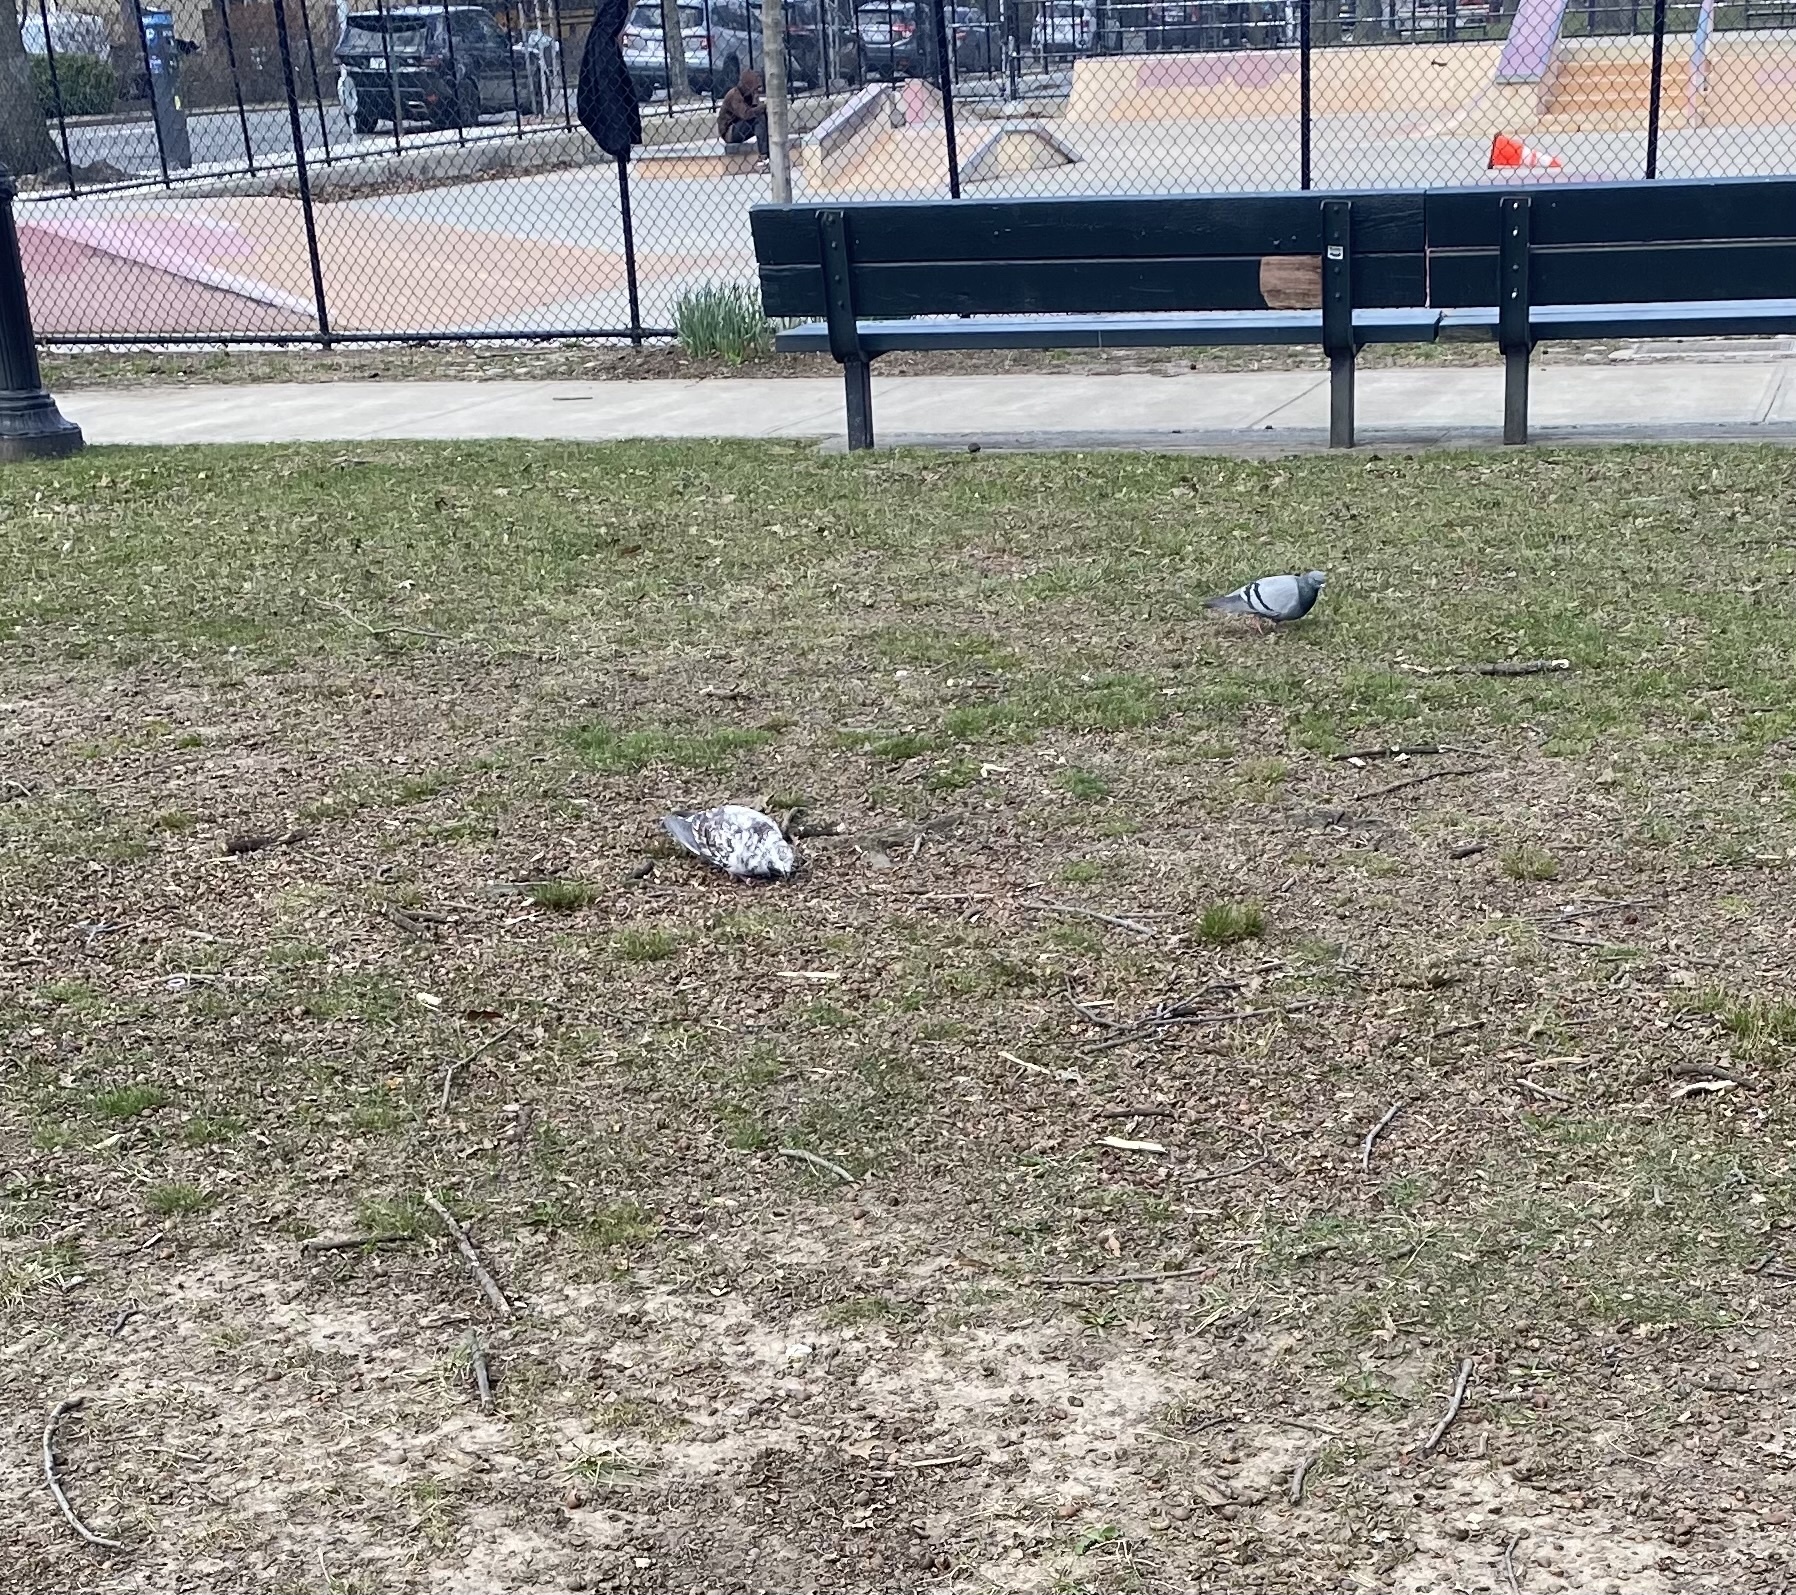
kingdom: Animalia
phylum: Chordata
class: Aves
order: Columbiformes
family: Columbidae
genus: Columba
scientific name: Columba livia
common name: Rock pigeon
